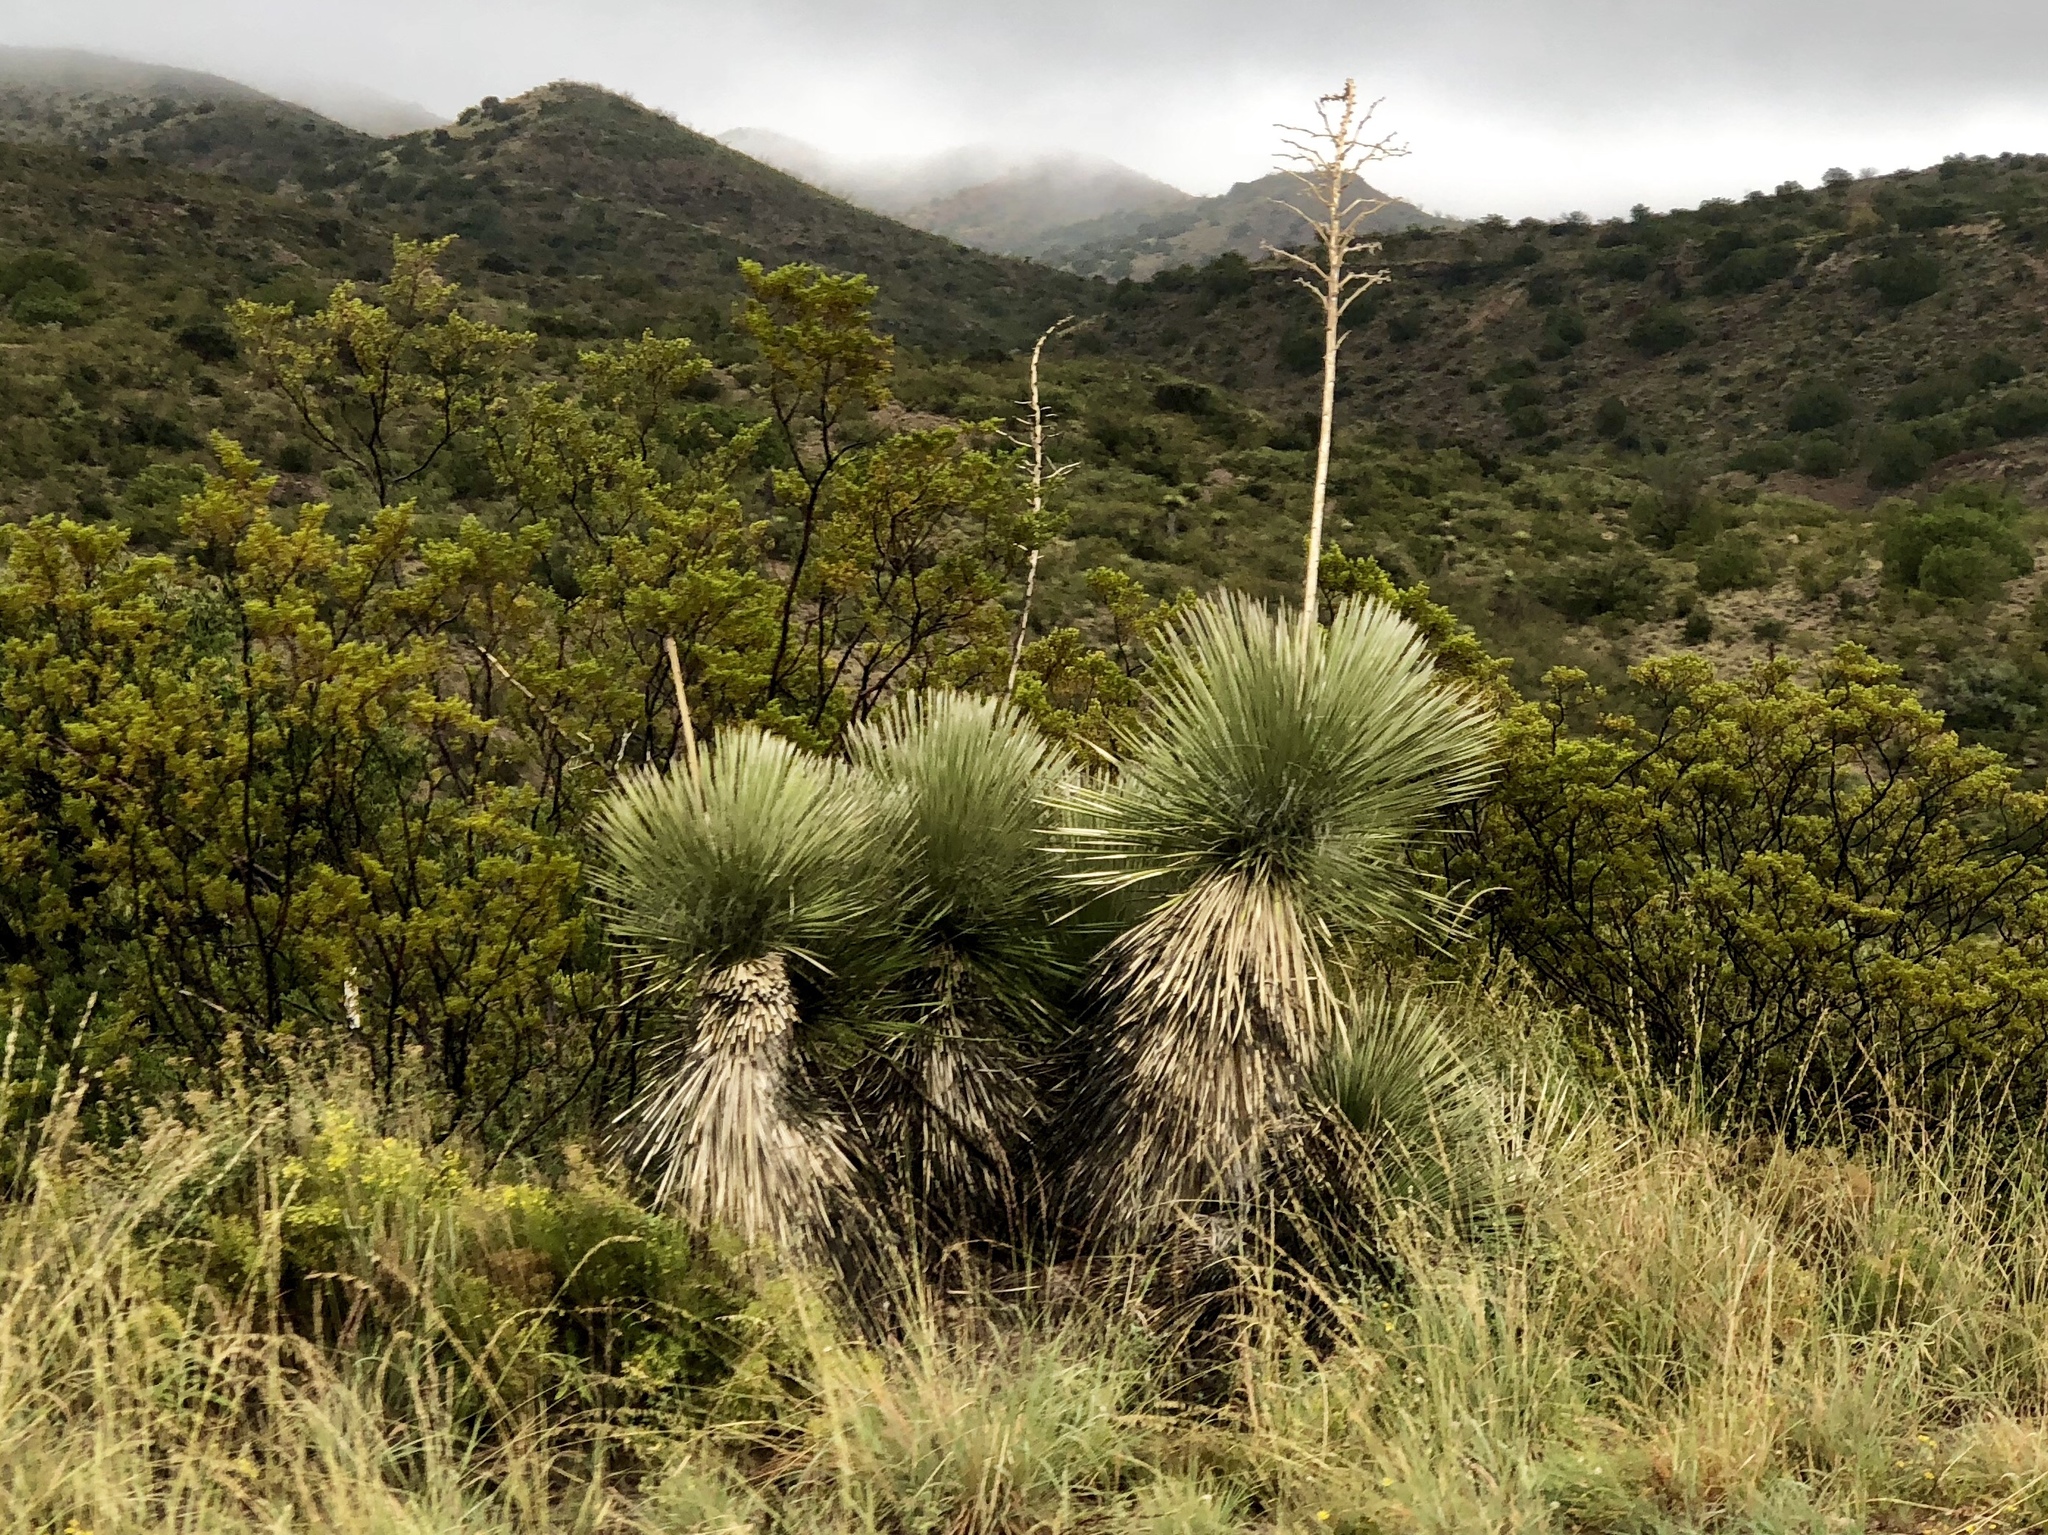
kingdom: Plantae
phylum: Tracheophyta
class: Liliopsida
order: Asparagales
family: Asparagaceae
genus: Yucca
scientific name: Yucca elata
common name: Palmella
